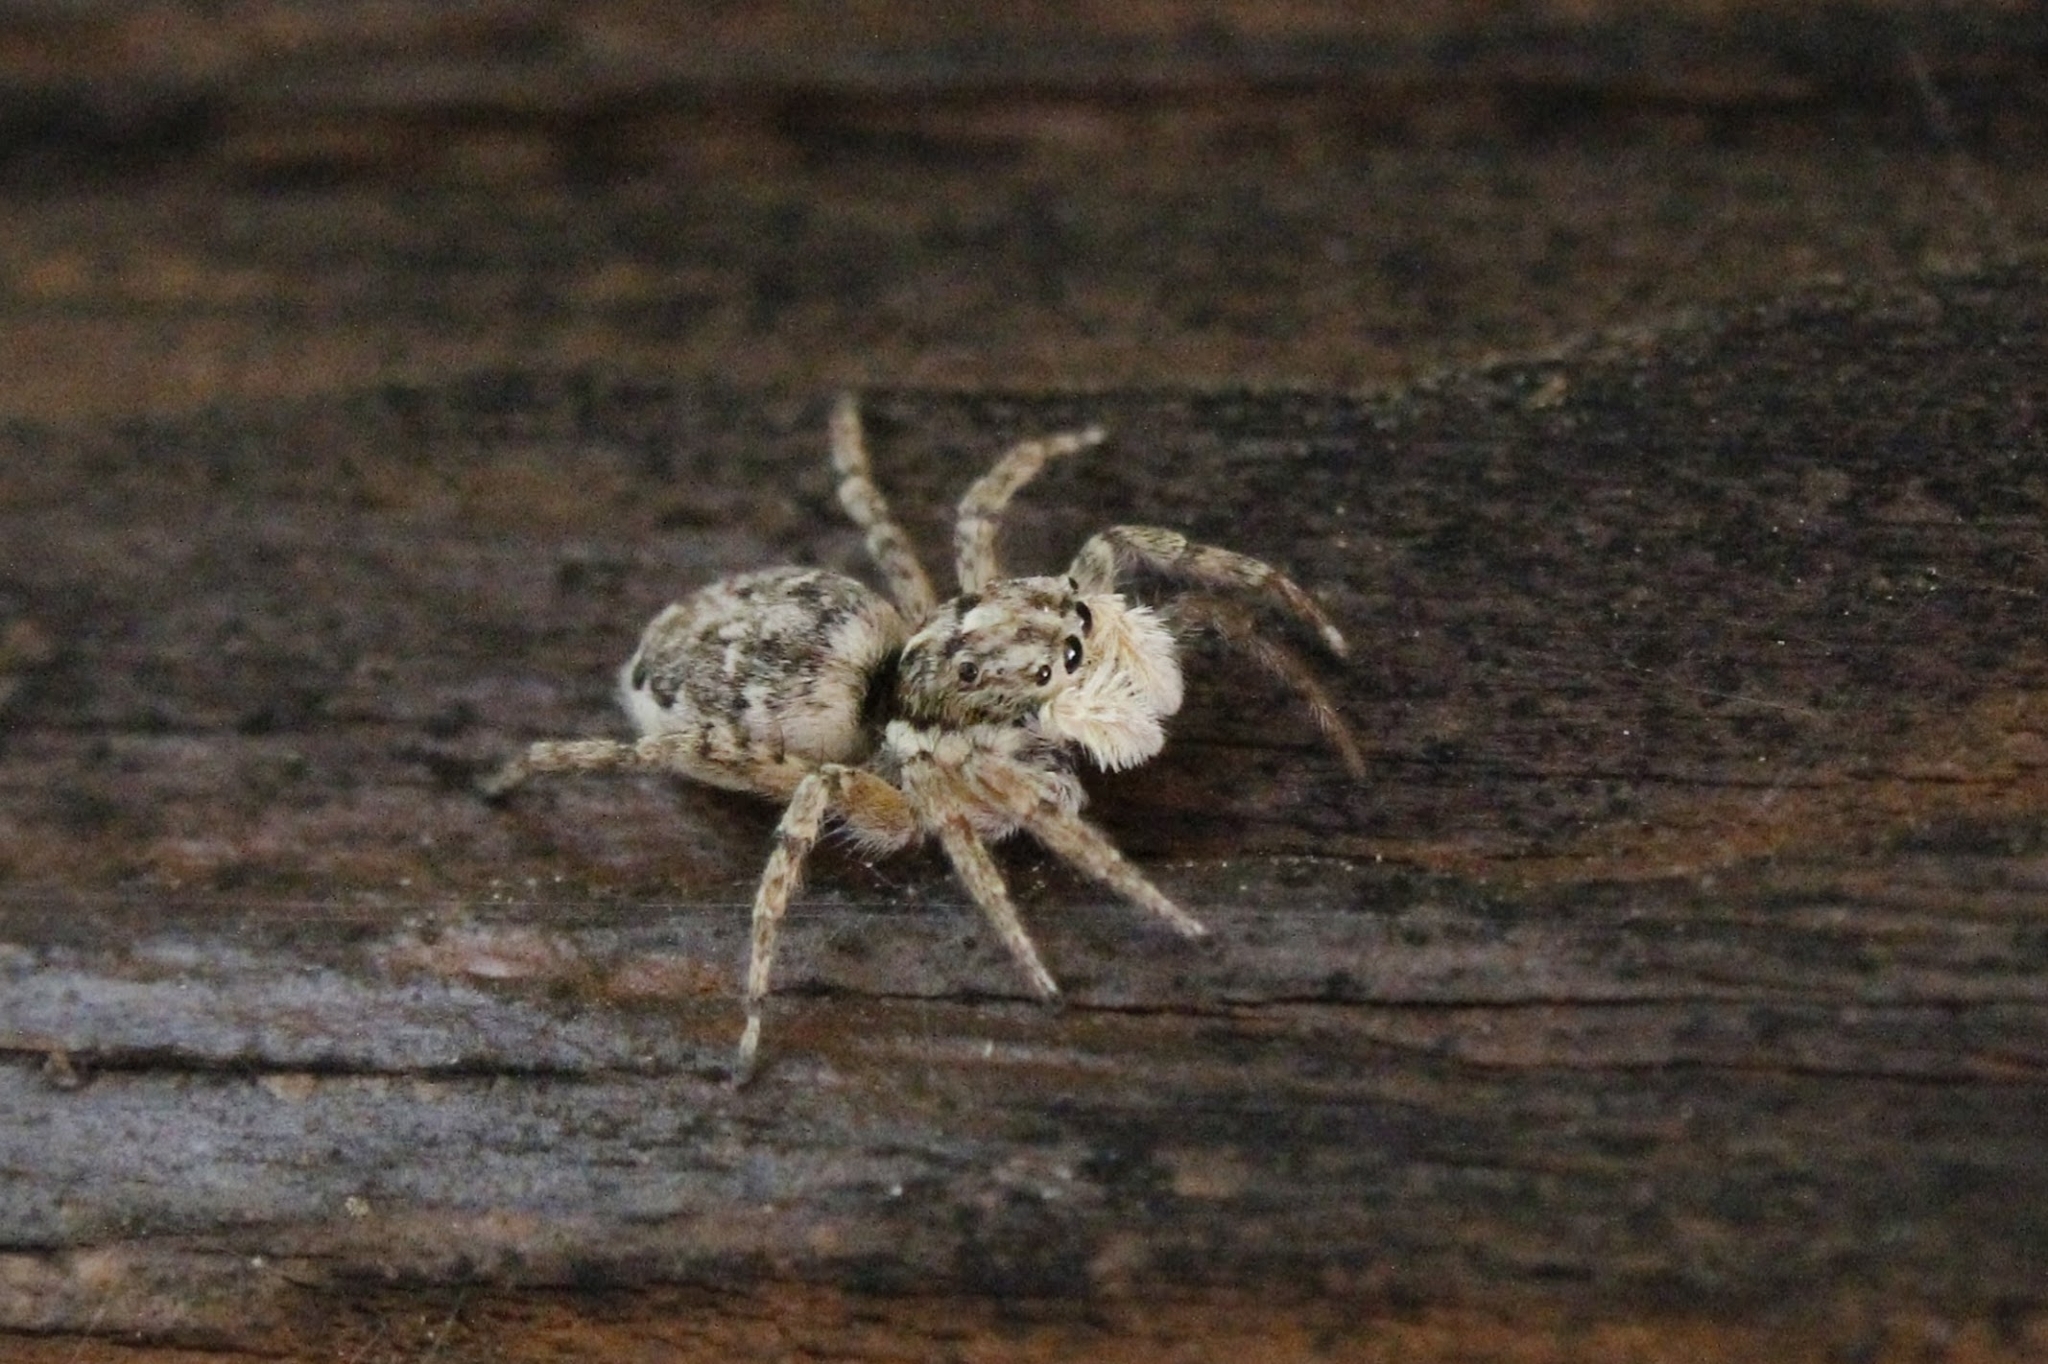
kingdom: Animalia
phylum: Arthropoda
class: Arachnida
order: Araneae
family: Salticidae
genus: Menemerus
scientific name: Menemerus semilimbatus
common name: Jumping spider
